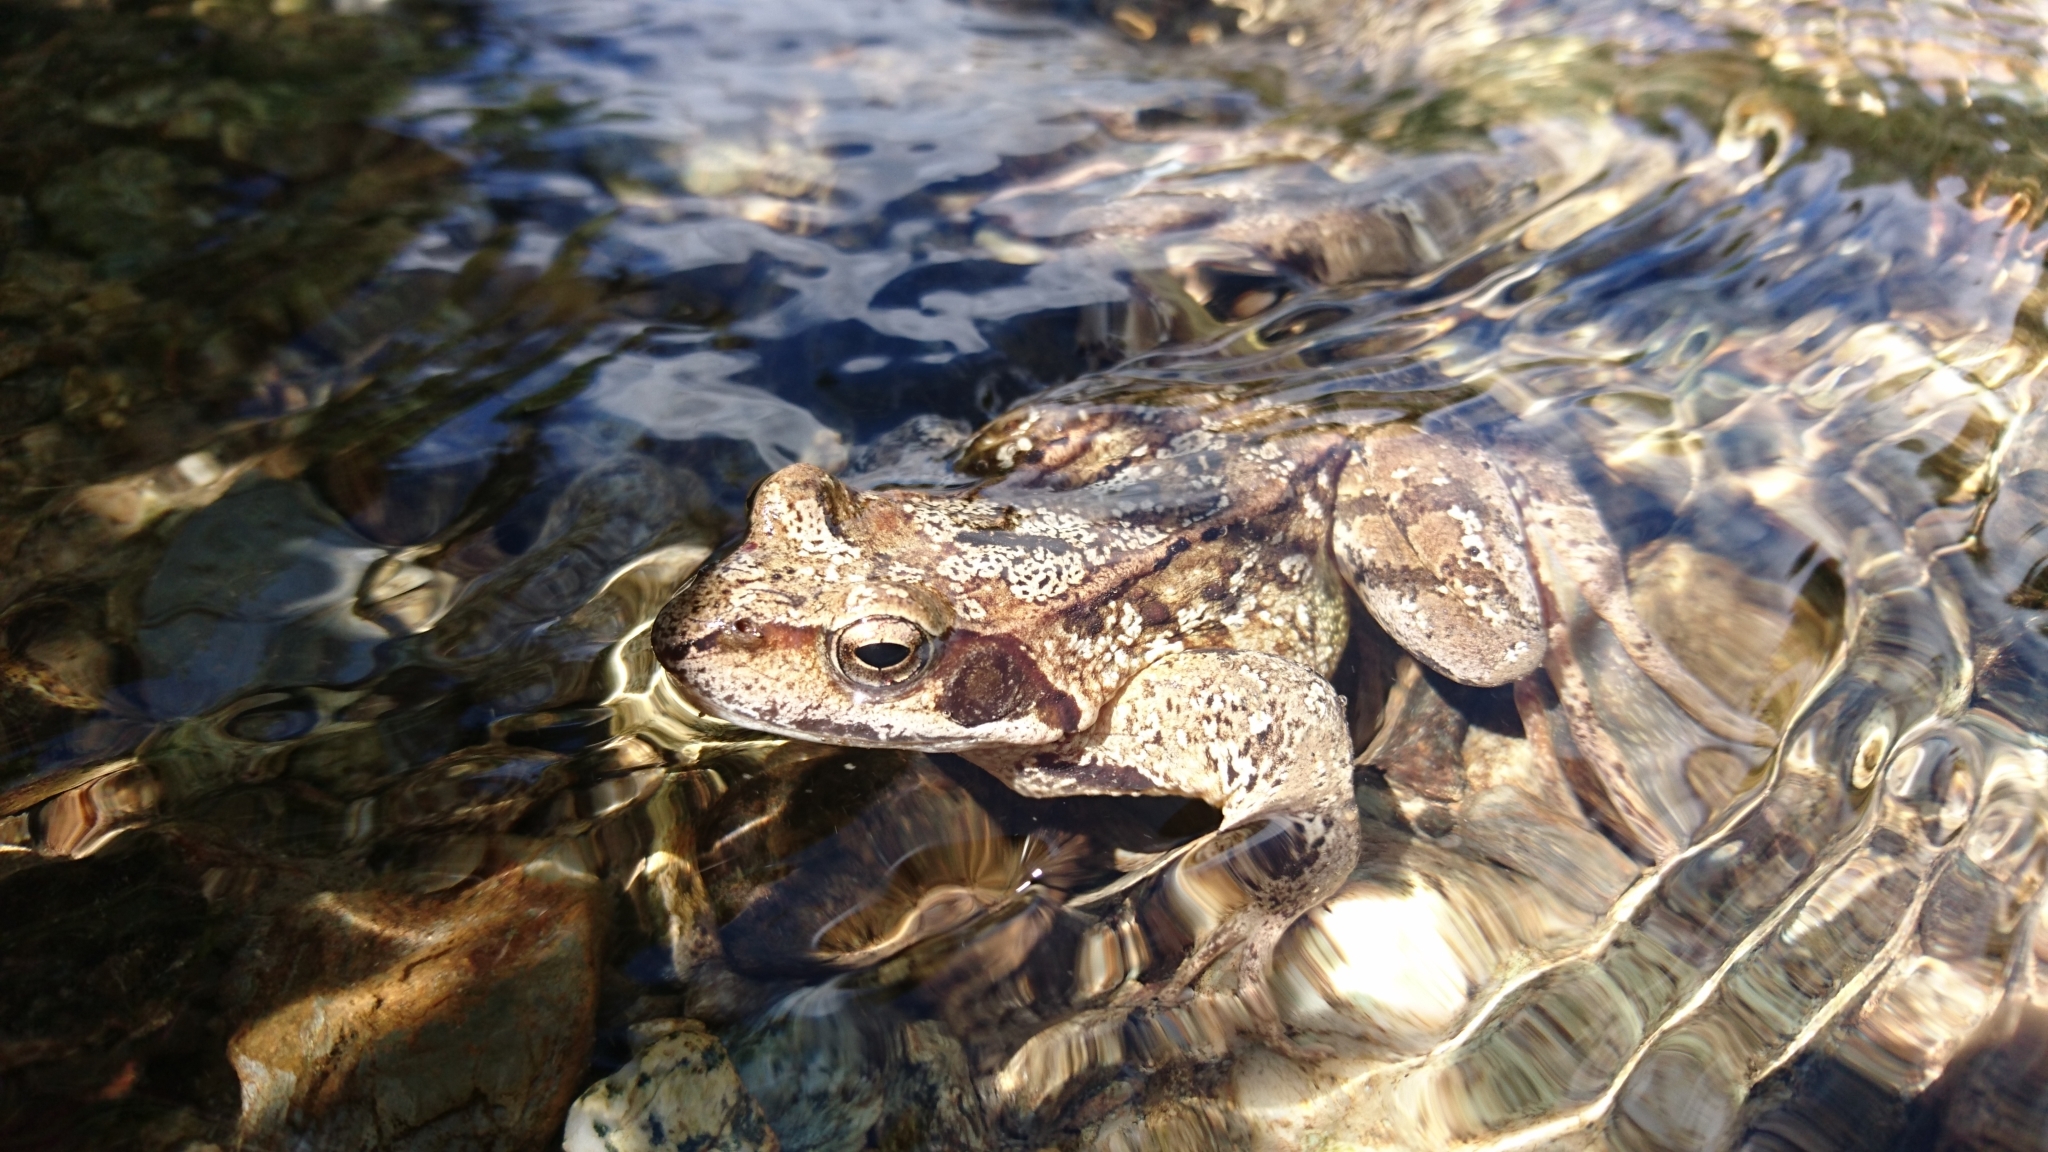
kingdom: Animalia
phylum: Chordata
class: Amphibia
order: Anura
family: Ranidae
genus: Rana
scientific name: Rana temporaria
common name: Common frog
